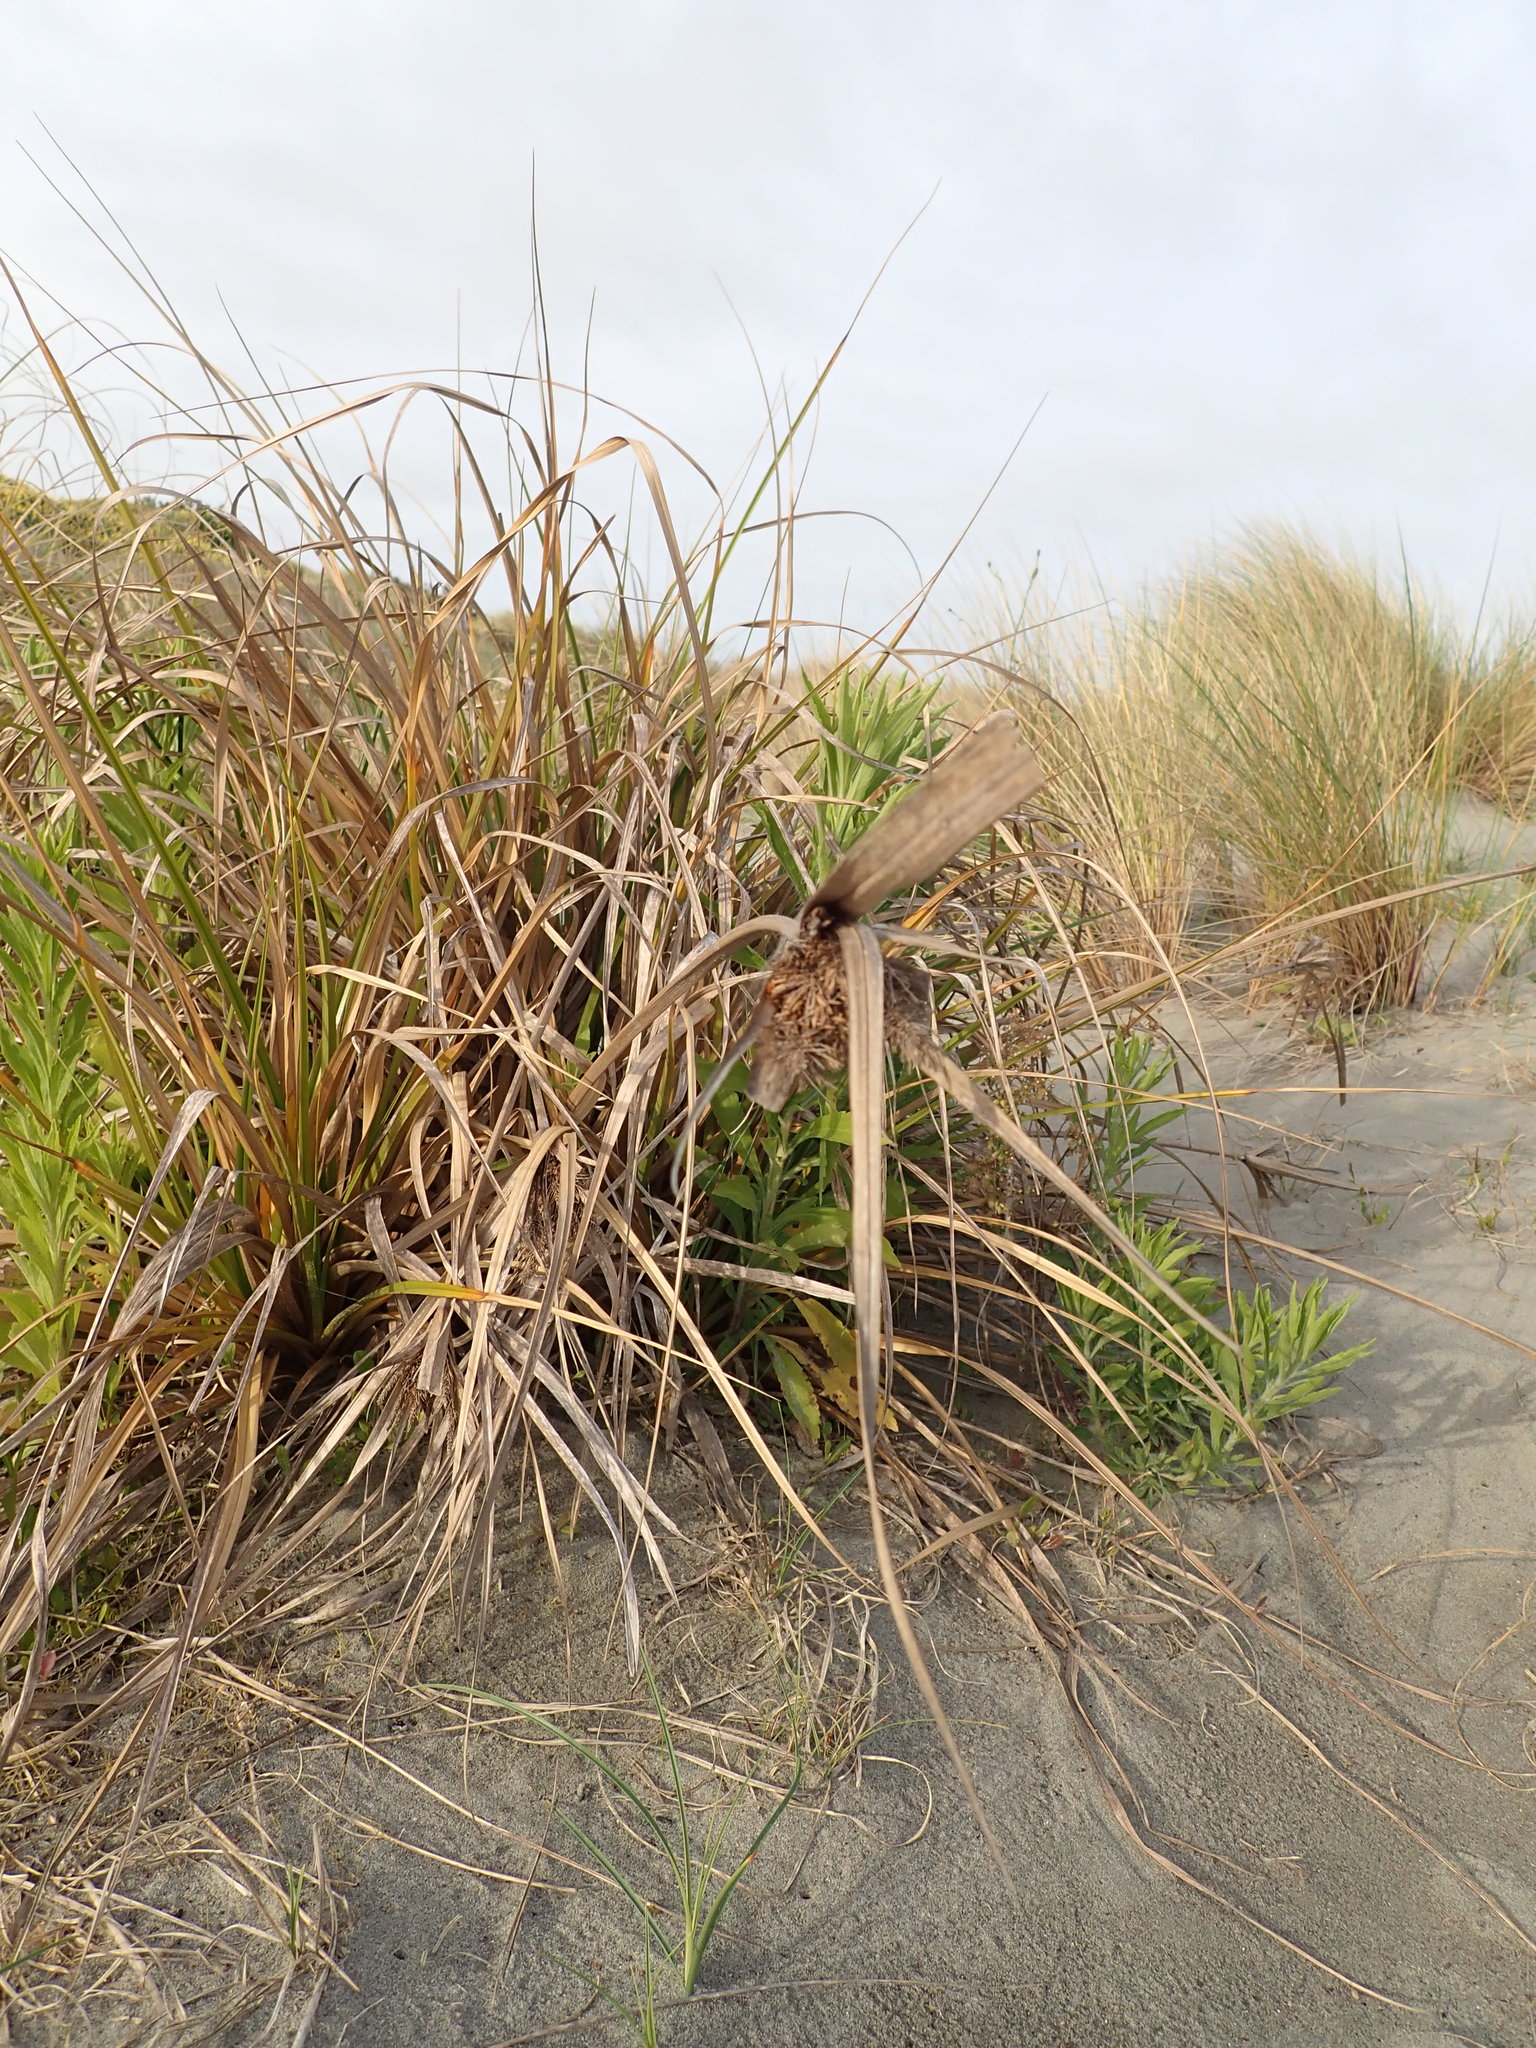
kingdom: Plantae
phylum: Tracheophyta
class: Liliopsida
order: Poales
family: Cyperaceae
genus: Cyperus
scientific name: Cyperus ustulatus
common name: Giant umbrella-sedge
